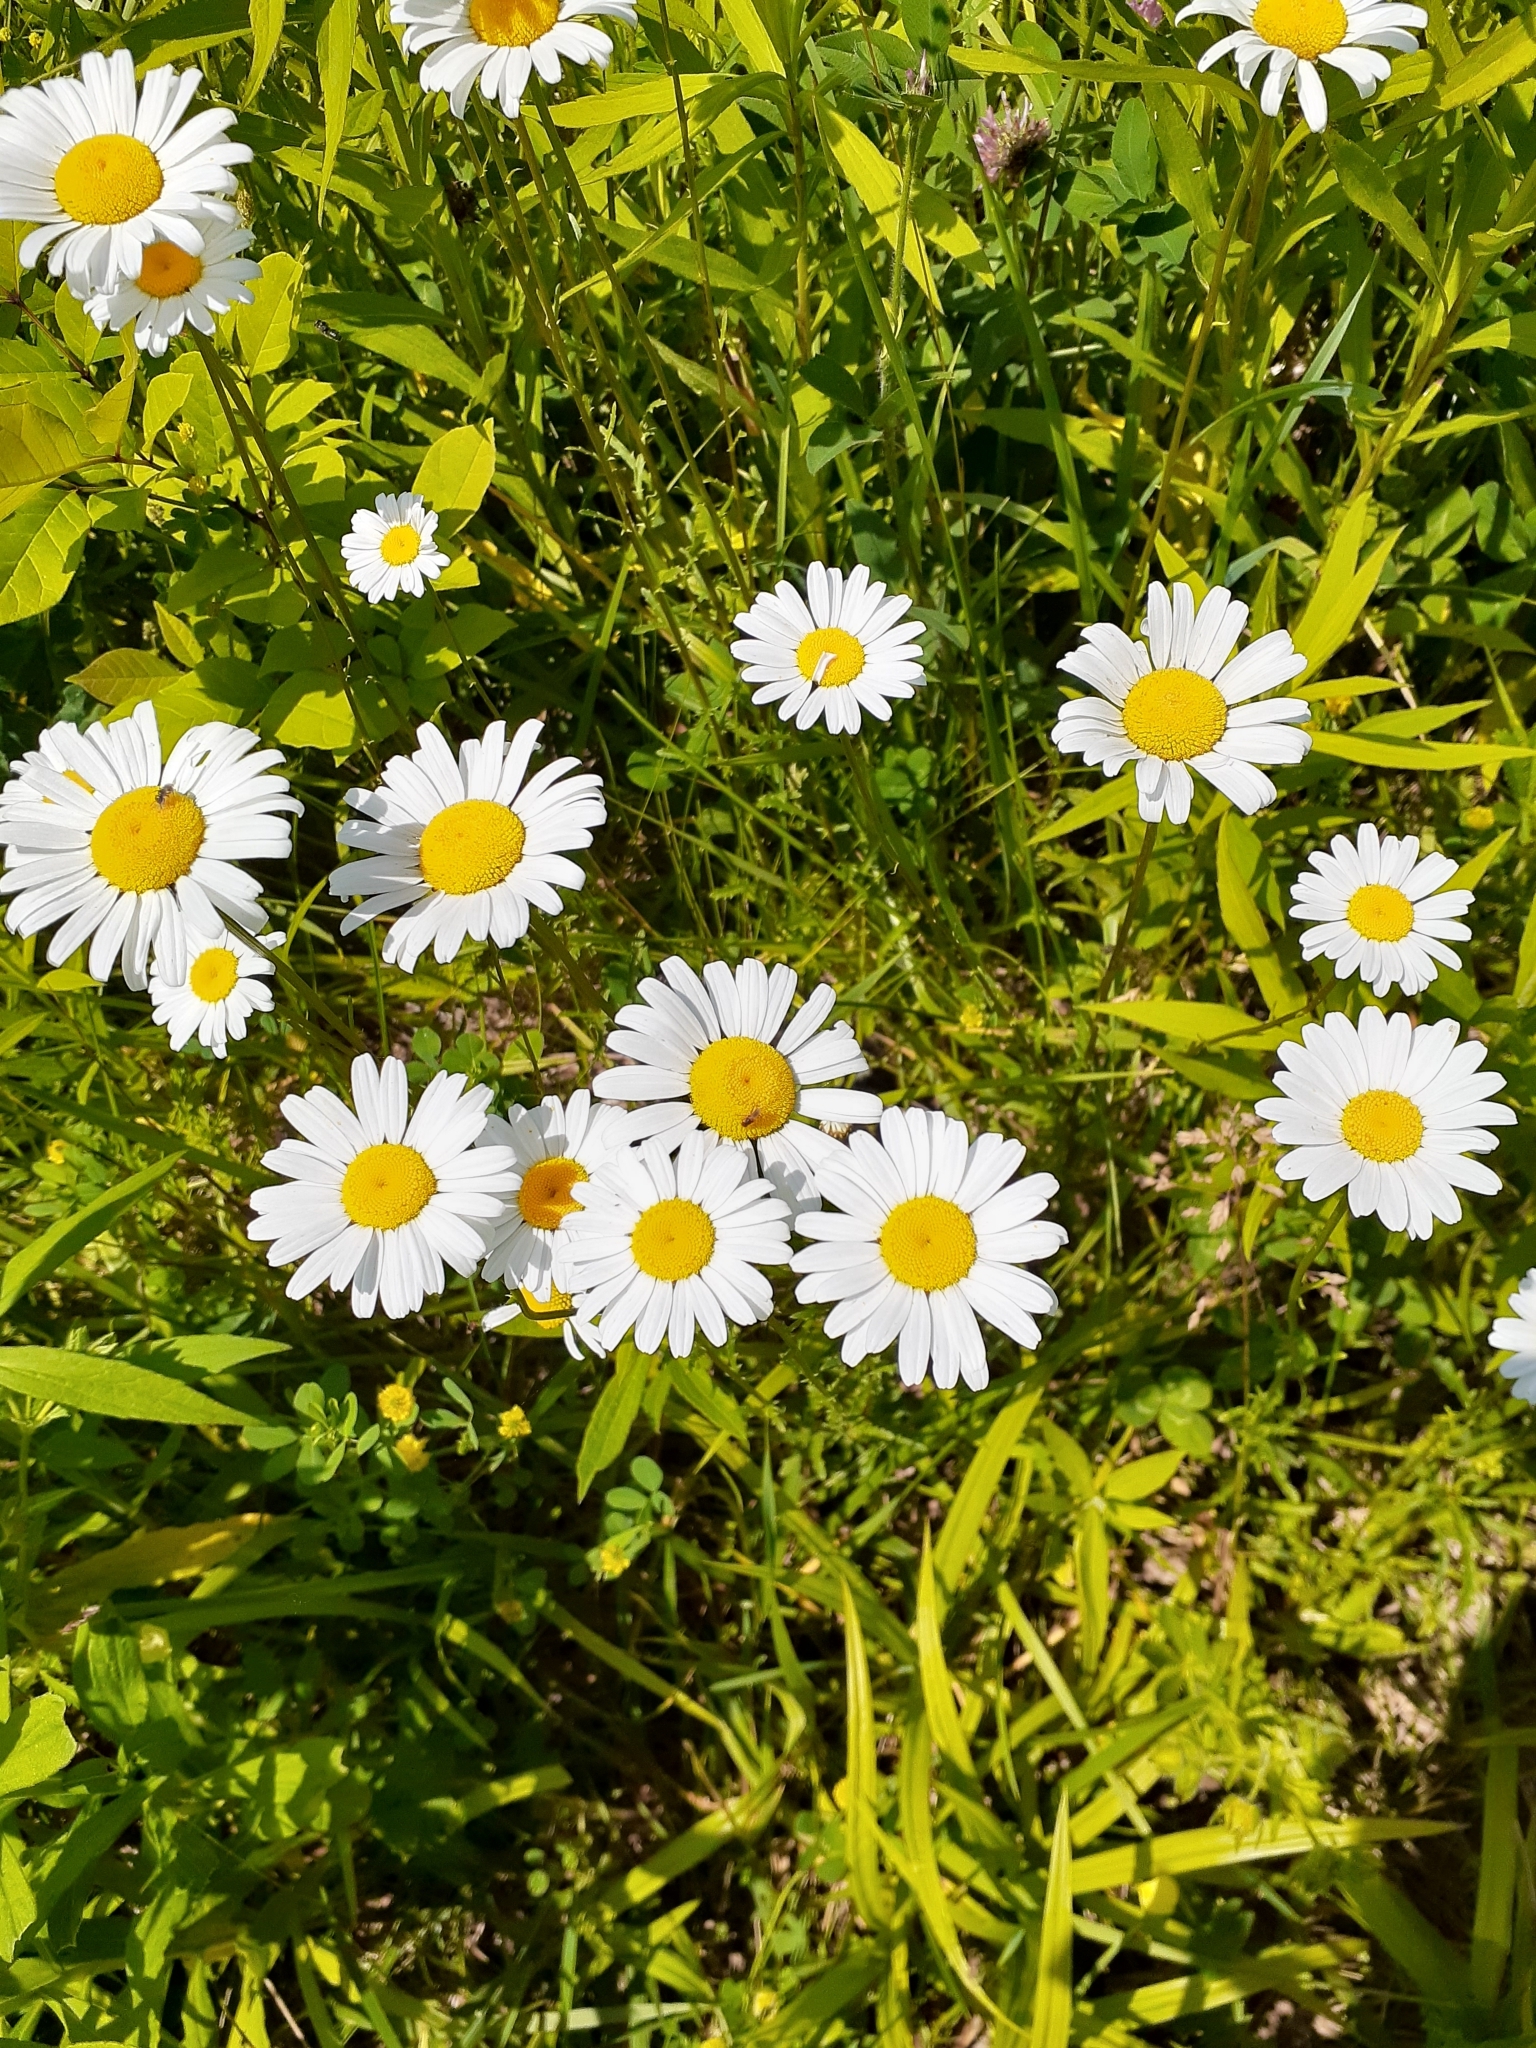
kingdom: Plantae
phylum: Tracheophyta
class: Magnoliopsida
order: Asterales
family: Asteraceae
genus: Leucanthemum
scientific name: Leucanthemum vulgare
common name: Oxeye daisy
